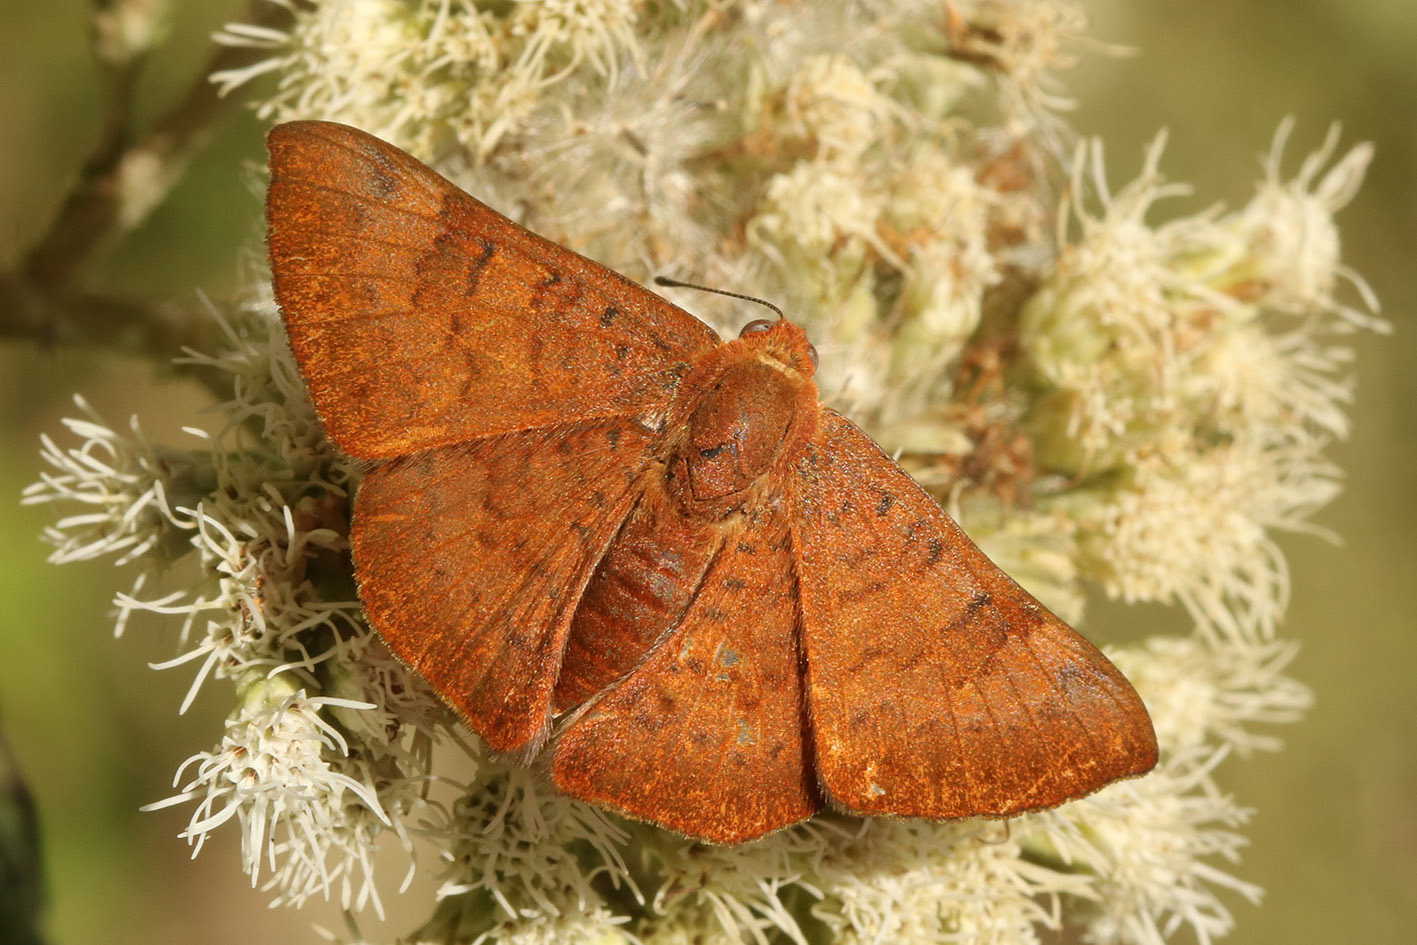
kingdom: Animalia
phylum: Arthropoda
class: Insecta
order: Lepidoptera
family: Lycaenidae
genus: Emesis
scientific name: Emesis russula
